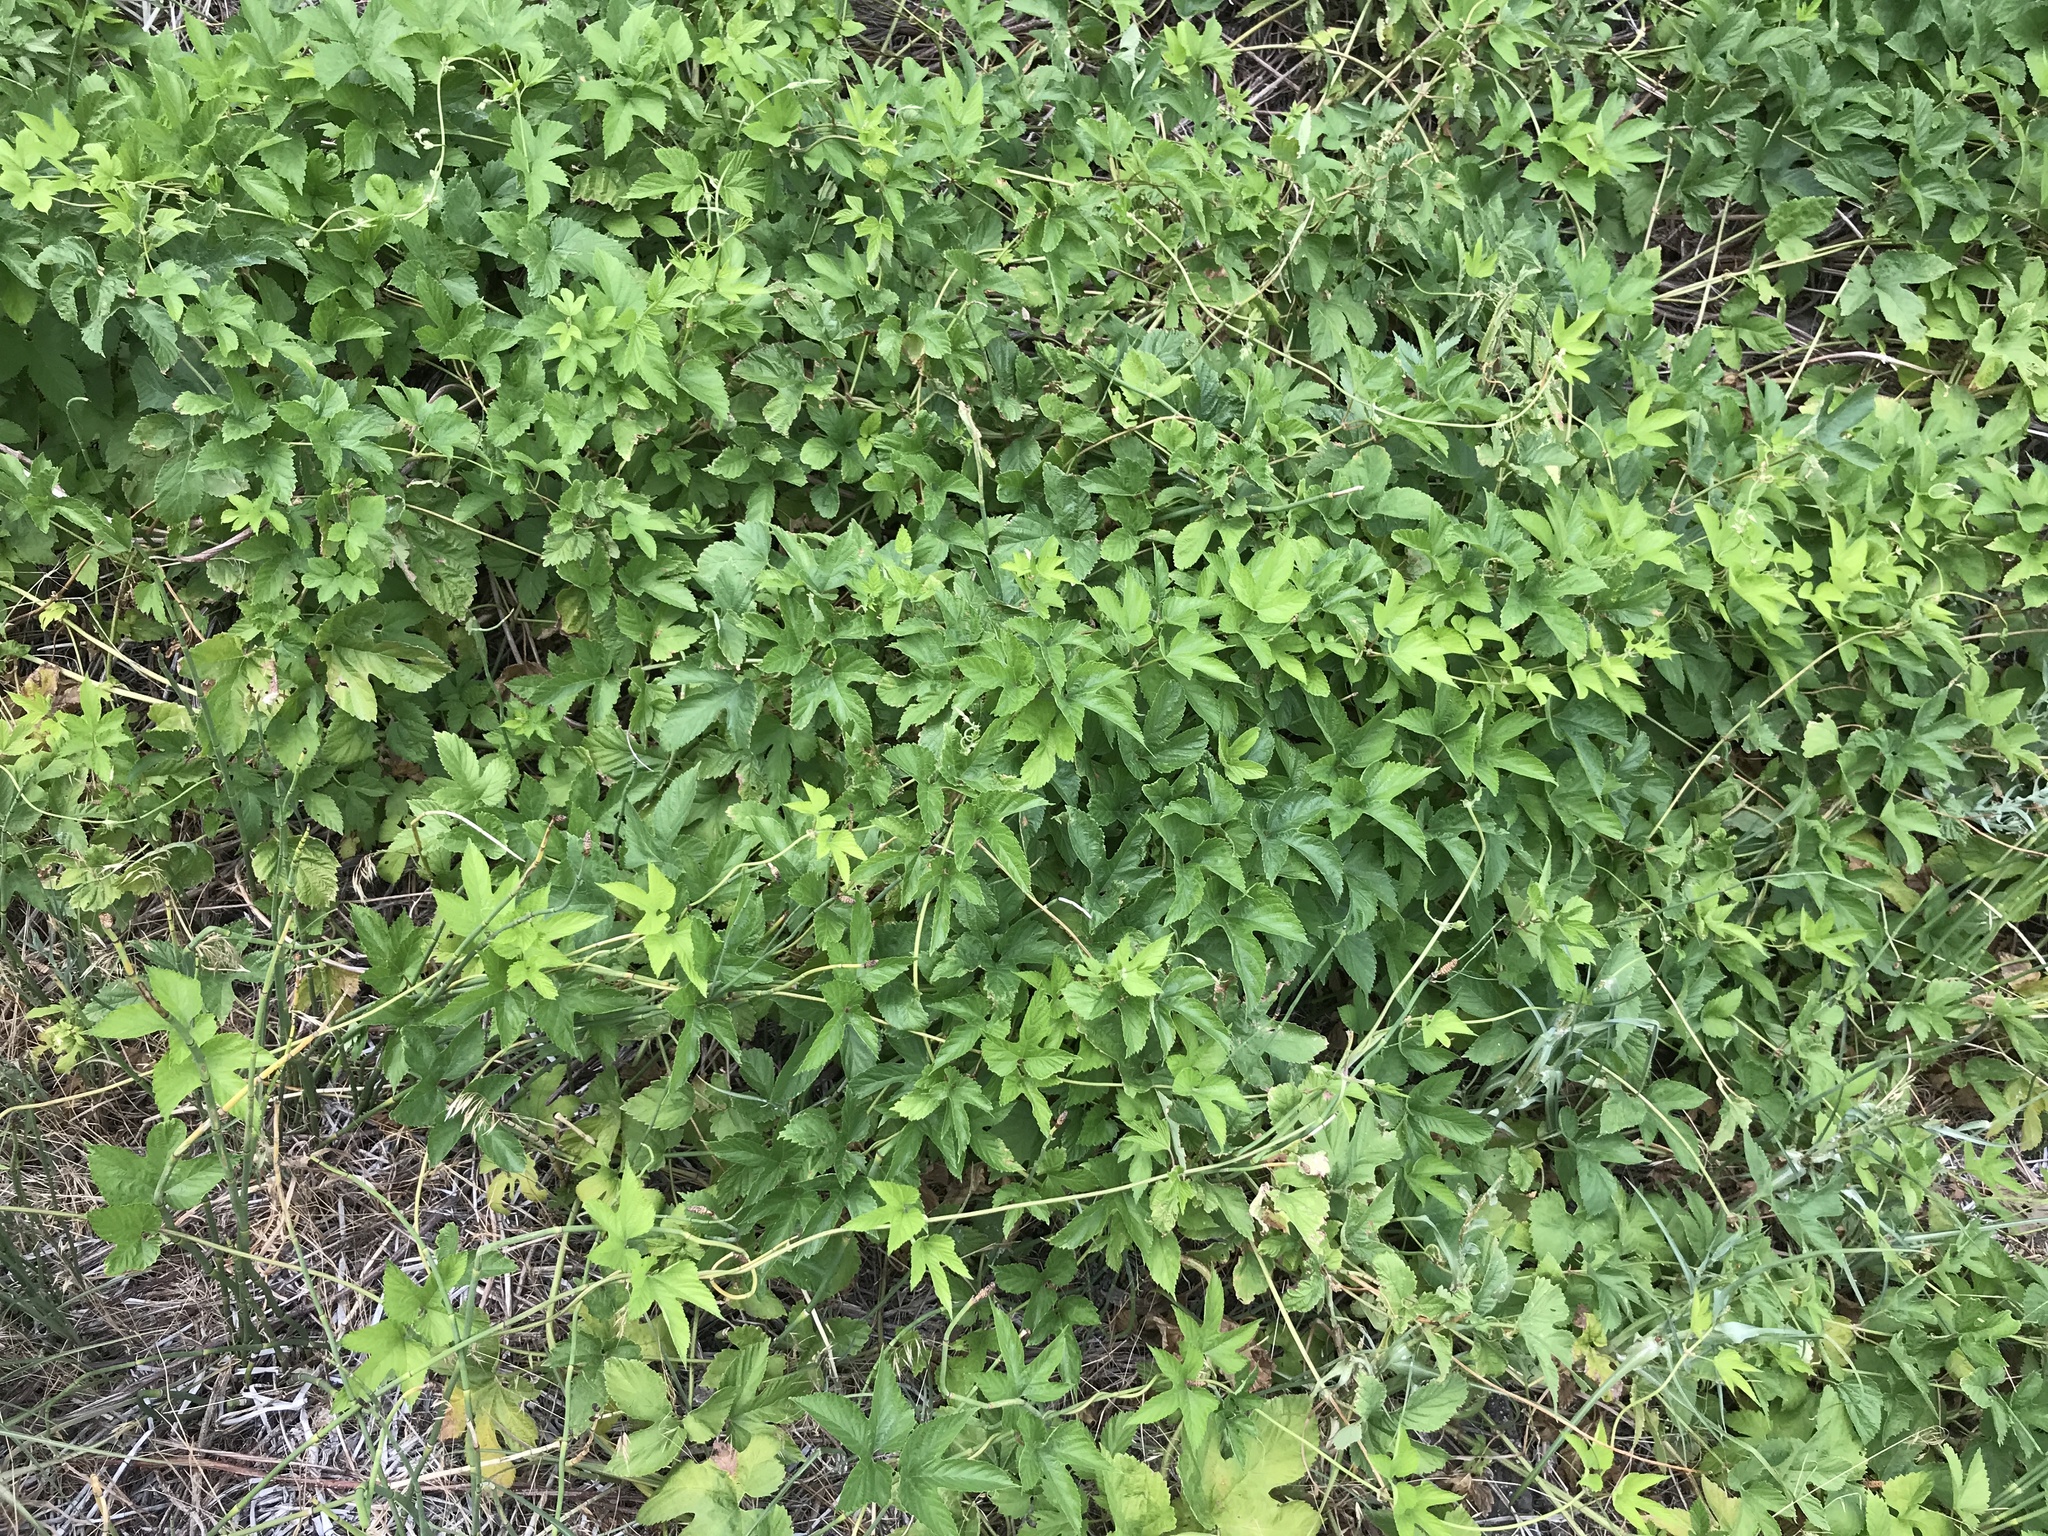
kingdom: Plantae
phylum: Tracheophyta
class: Magnoliopsida
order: Rosales
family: Cannabaceae
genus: Humulus
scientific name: Humulus lupulus
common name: Hop
